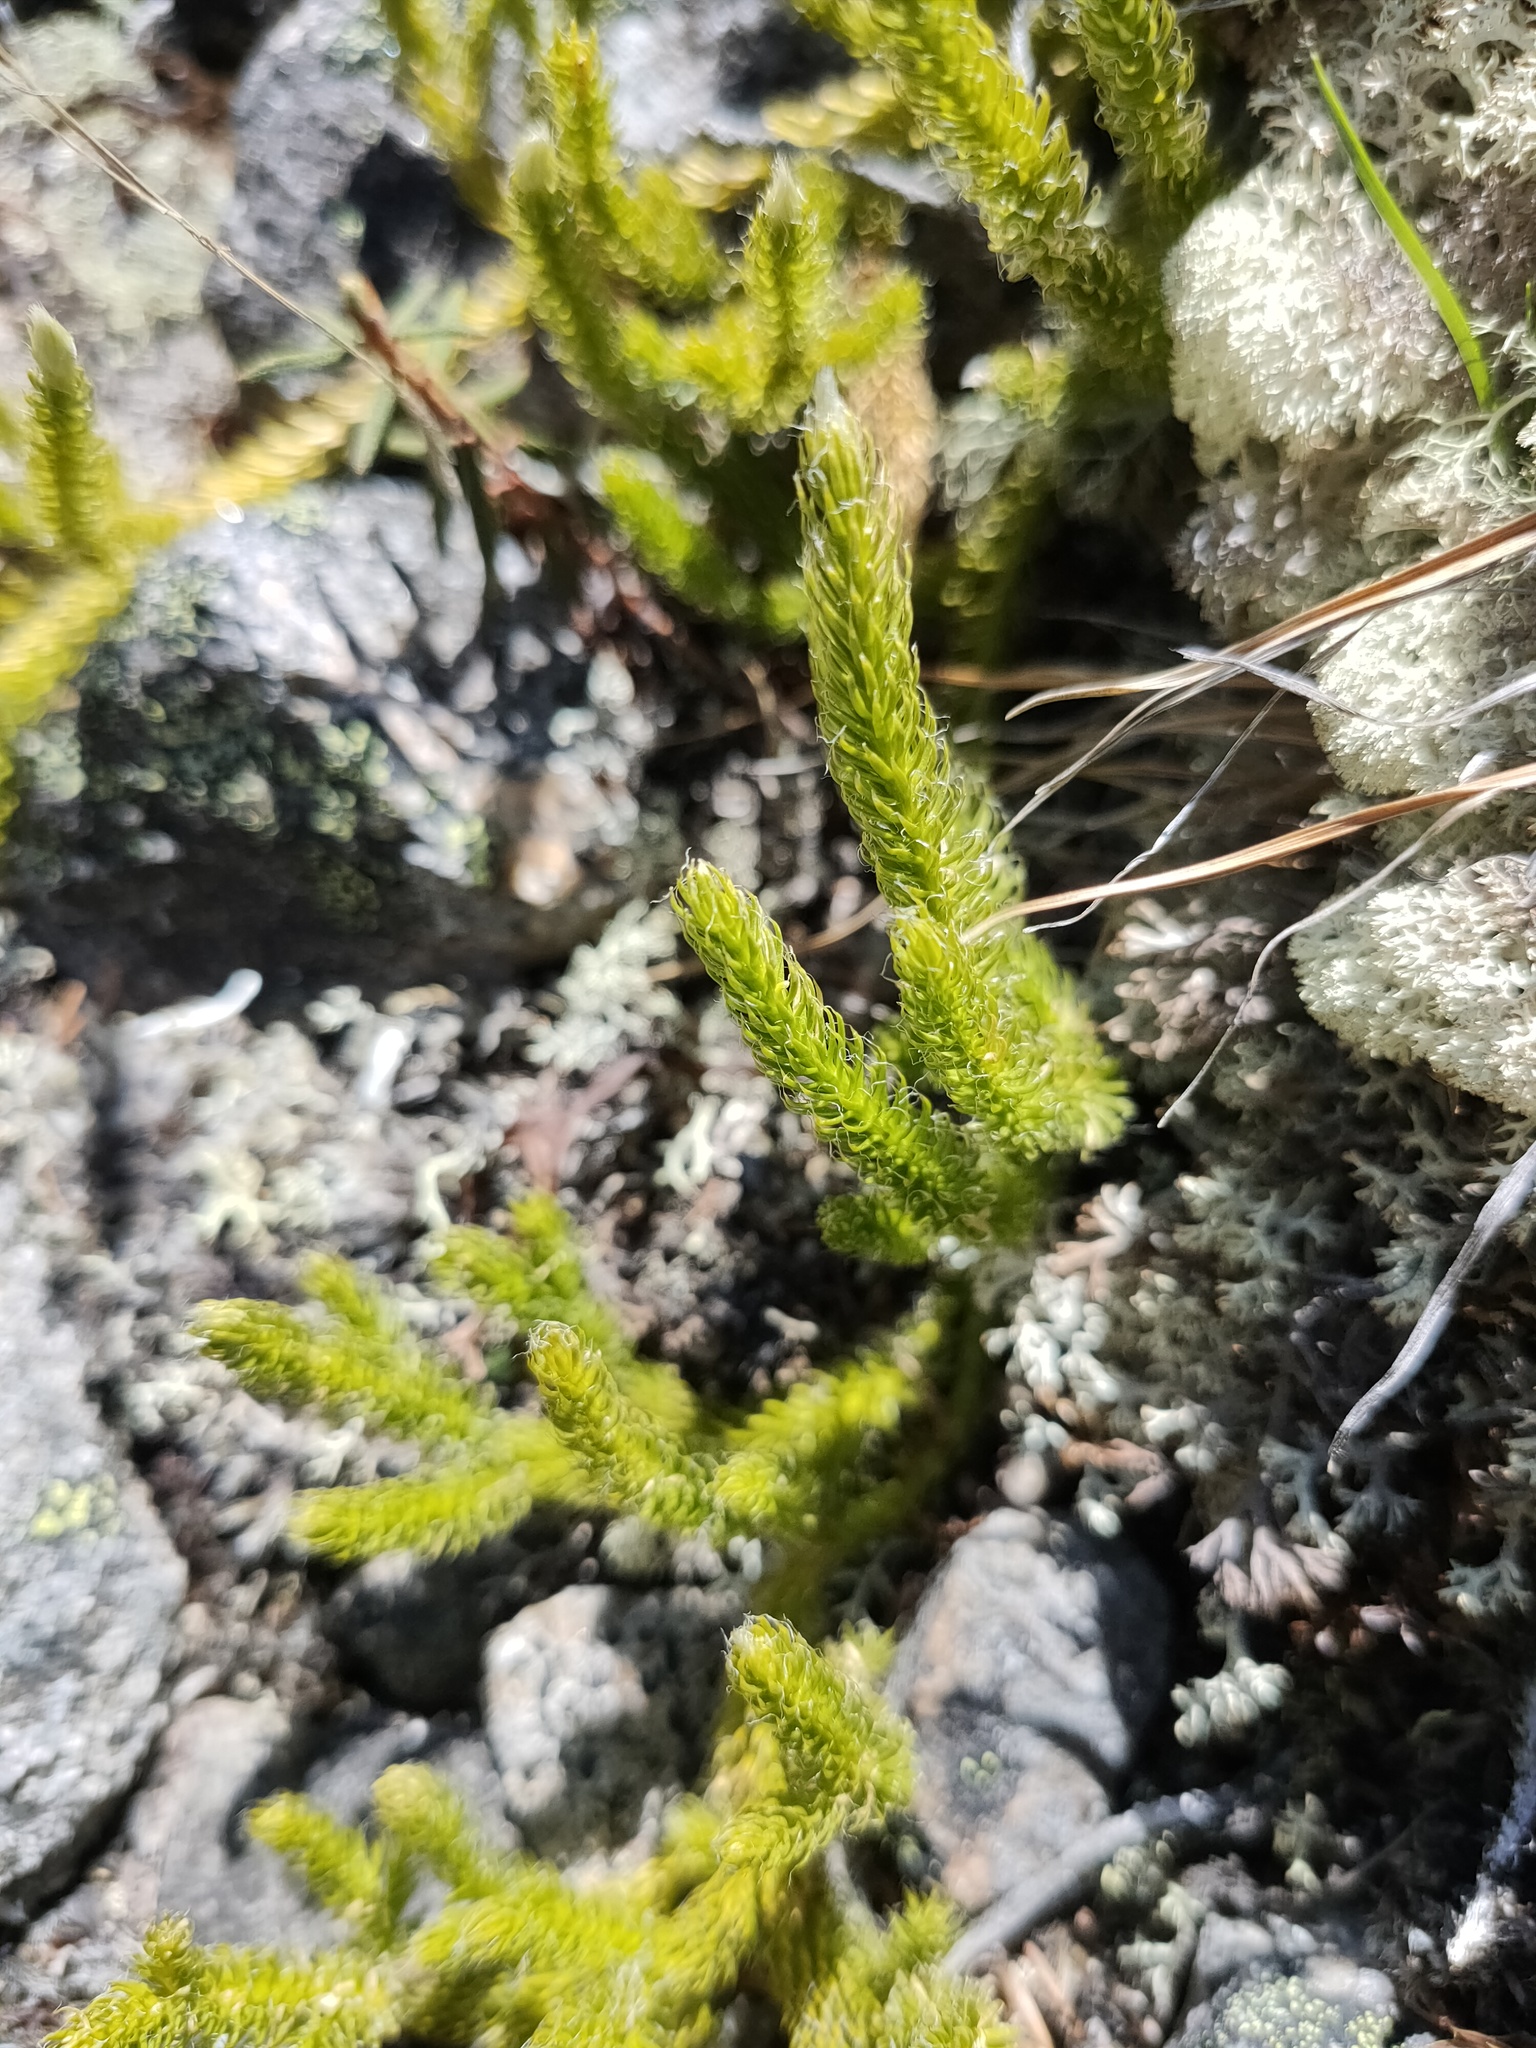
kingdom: Plantae
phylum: Tracheophyta
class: Lycopodiopsida
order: Lycopodiales
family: Lycopodiaceae
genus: Lycopodium
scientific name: Lycopodium lagopus
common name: One-cone clubmoss
